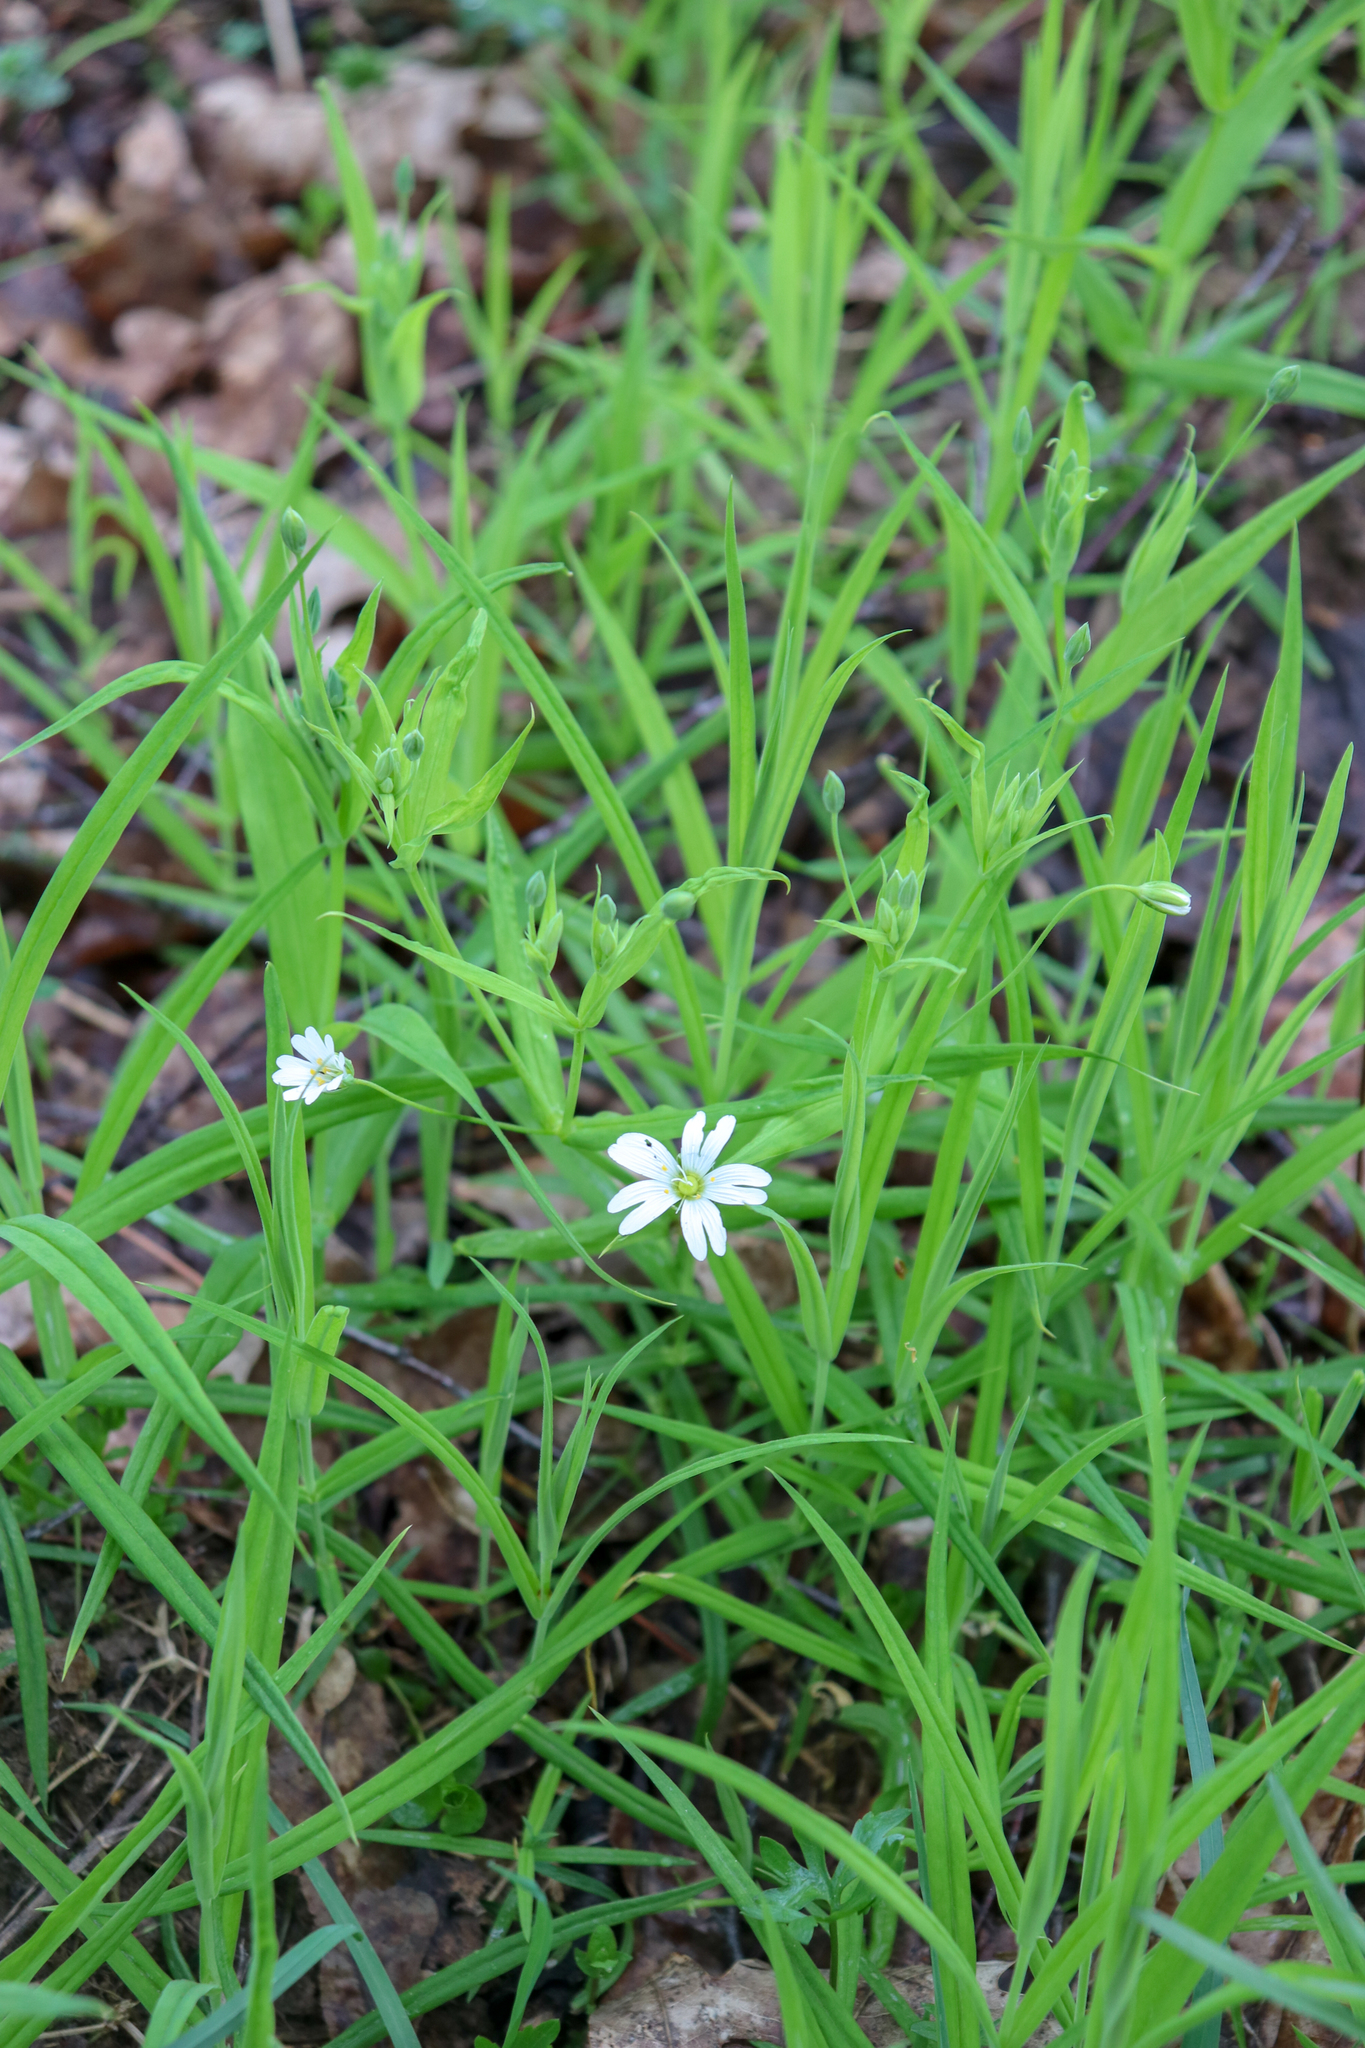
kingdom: Plantae
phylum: Tracheophyta
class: Magnoliopsida
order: Caryophyllales
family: Caryophyllaceae
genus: Rabelera
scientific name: Rabelera holostea
